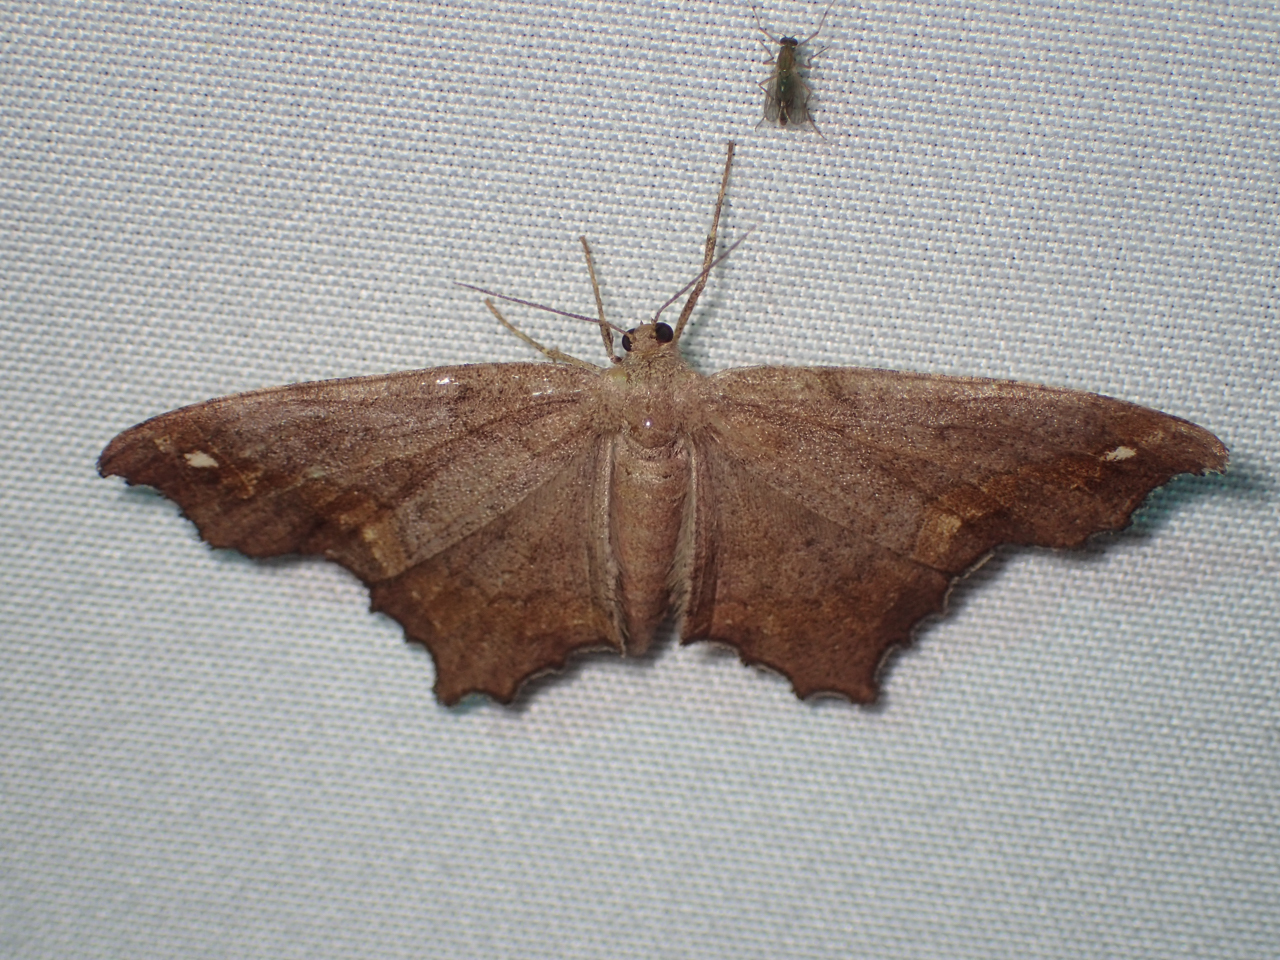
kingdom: Animalia
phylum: Arthropoda
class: Insecta
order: Lepidoptera
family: Geometridae
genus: Hypagyrtis
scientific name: Hypagyrtis esther
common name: Esther moth
